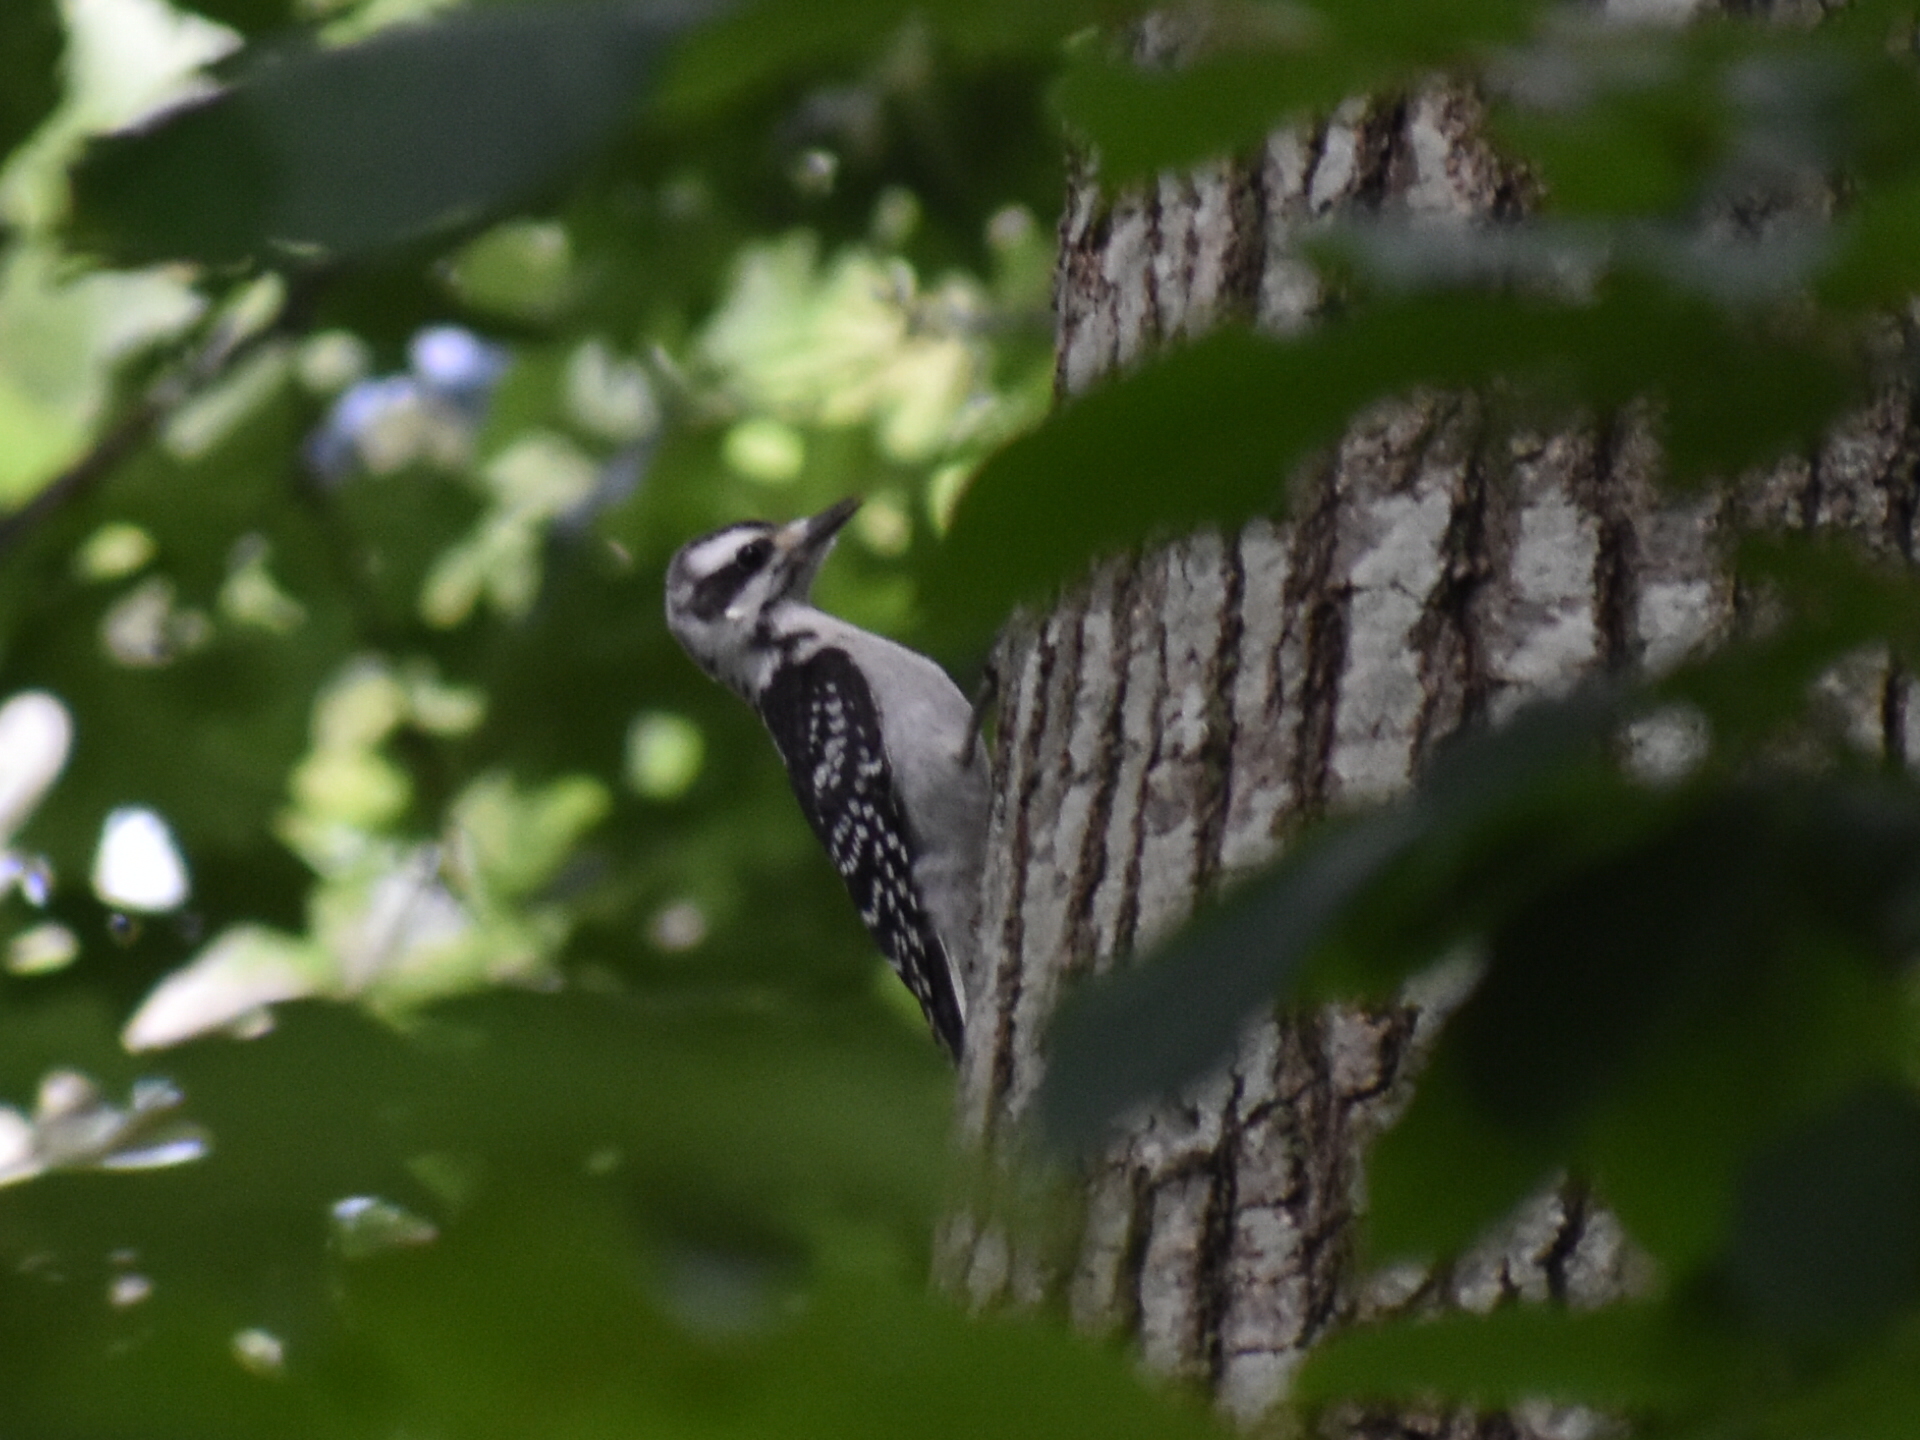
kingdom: Animalia
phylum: Chordata
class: Aves
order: Piciformes
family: Picidae
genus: Leuconotopicus
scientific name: Leuconotopicus villosus
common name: Hairy woodpecker
